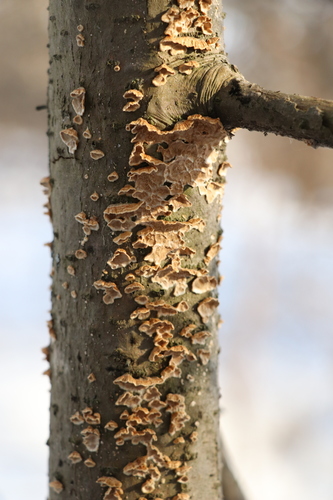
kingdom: Fungi
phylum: Basidiomycota
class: Agaricomycetes
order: Hymenochaetales
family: Hymenochaetaceae
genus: Hydnoporia
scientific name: Hydnoporia tabacina
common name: Willow glue
